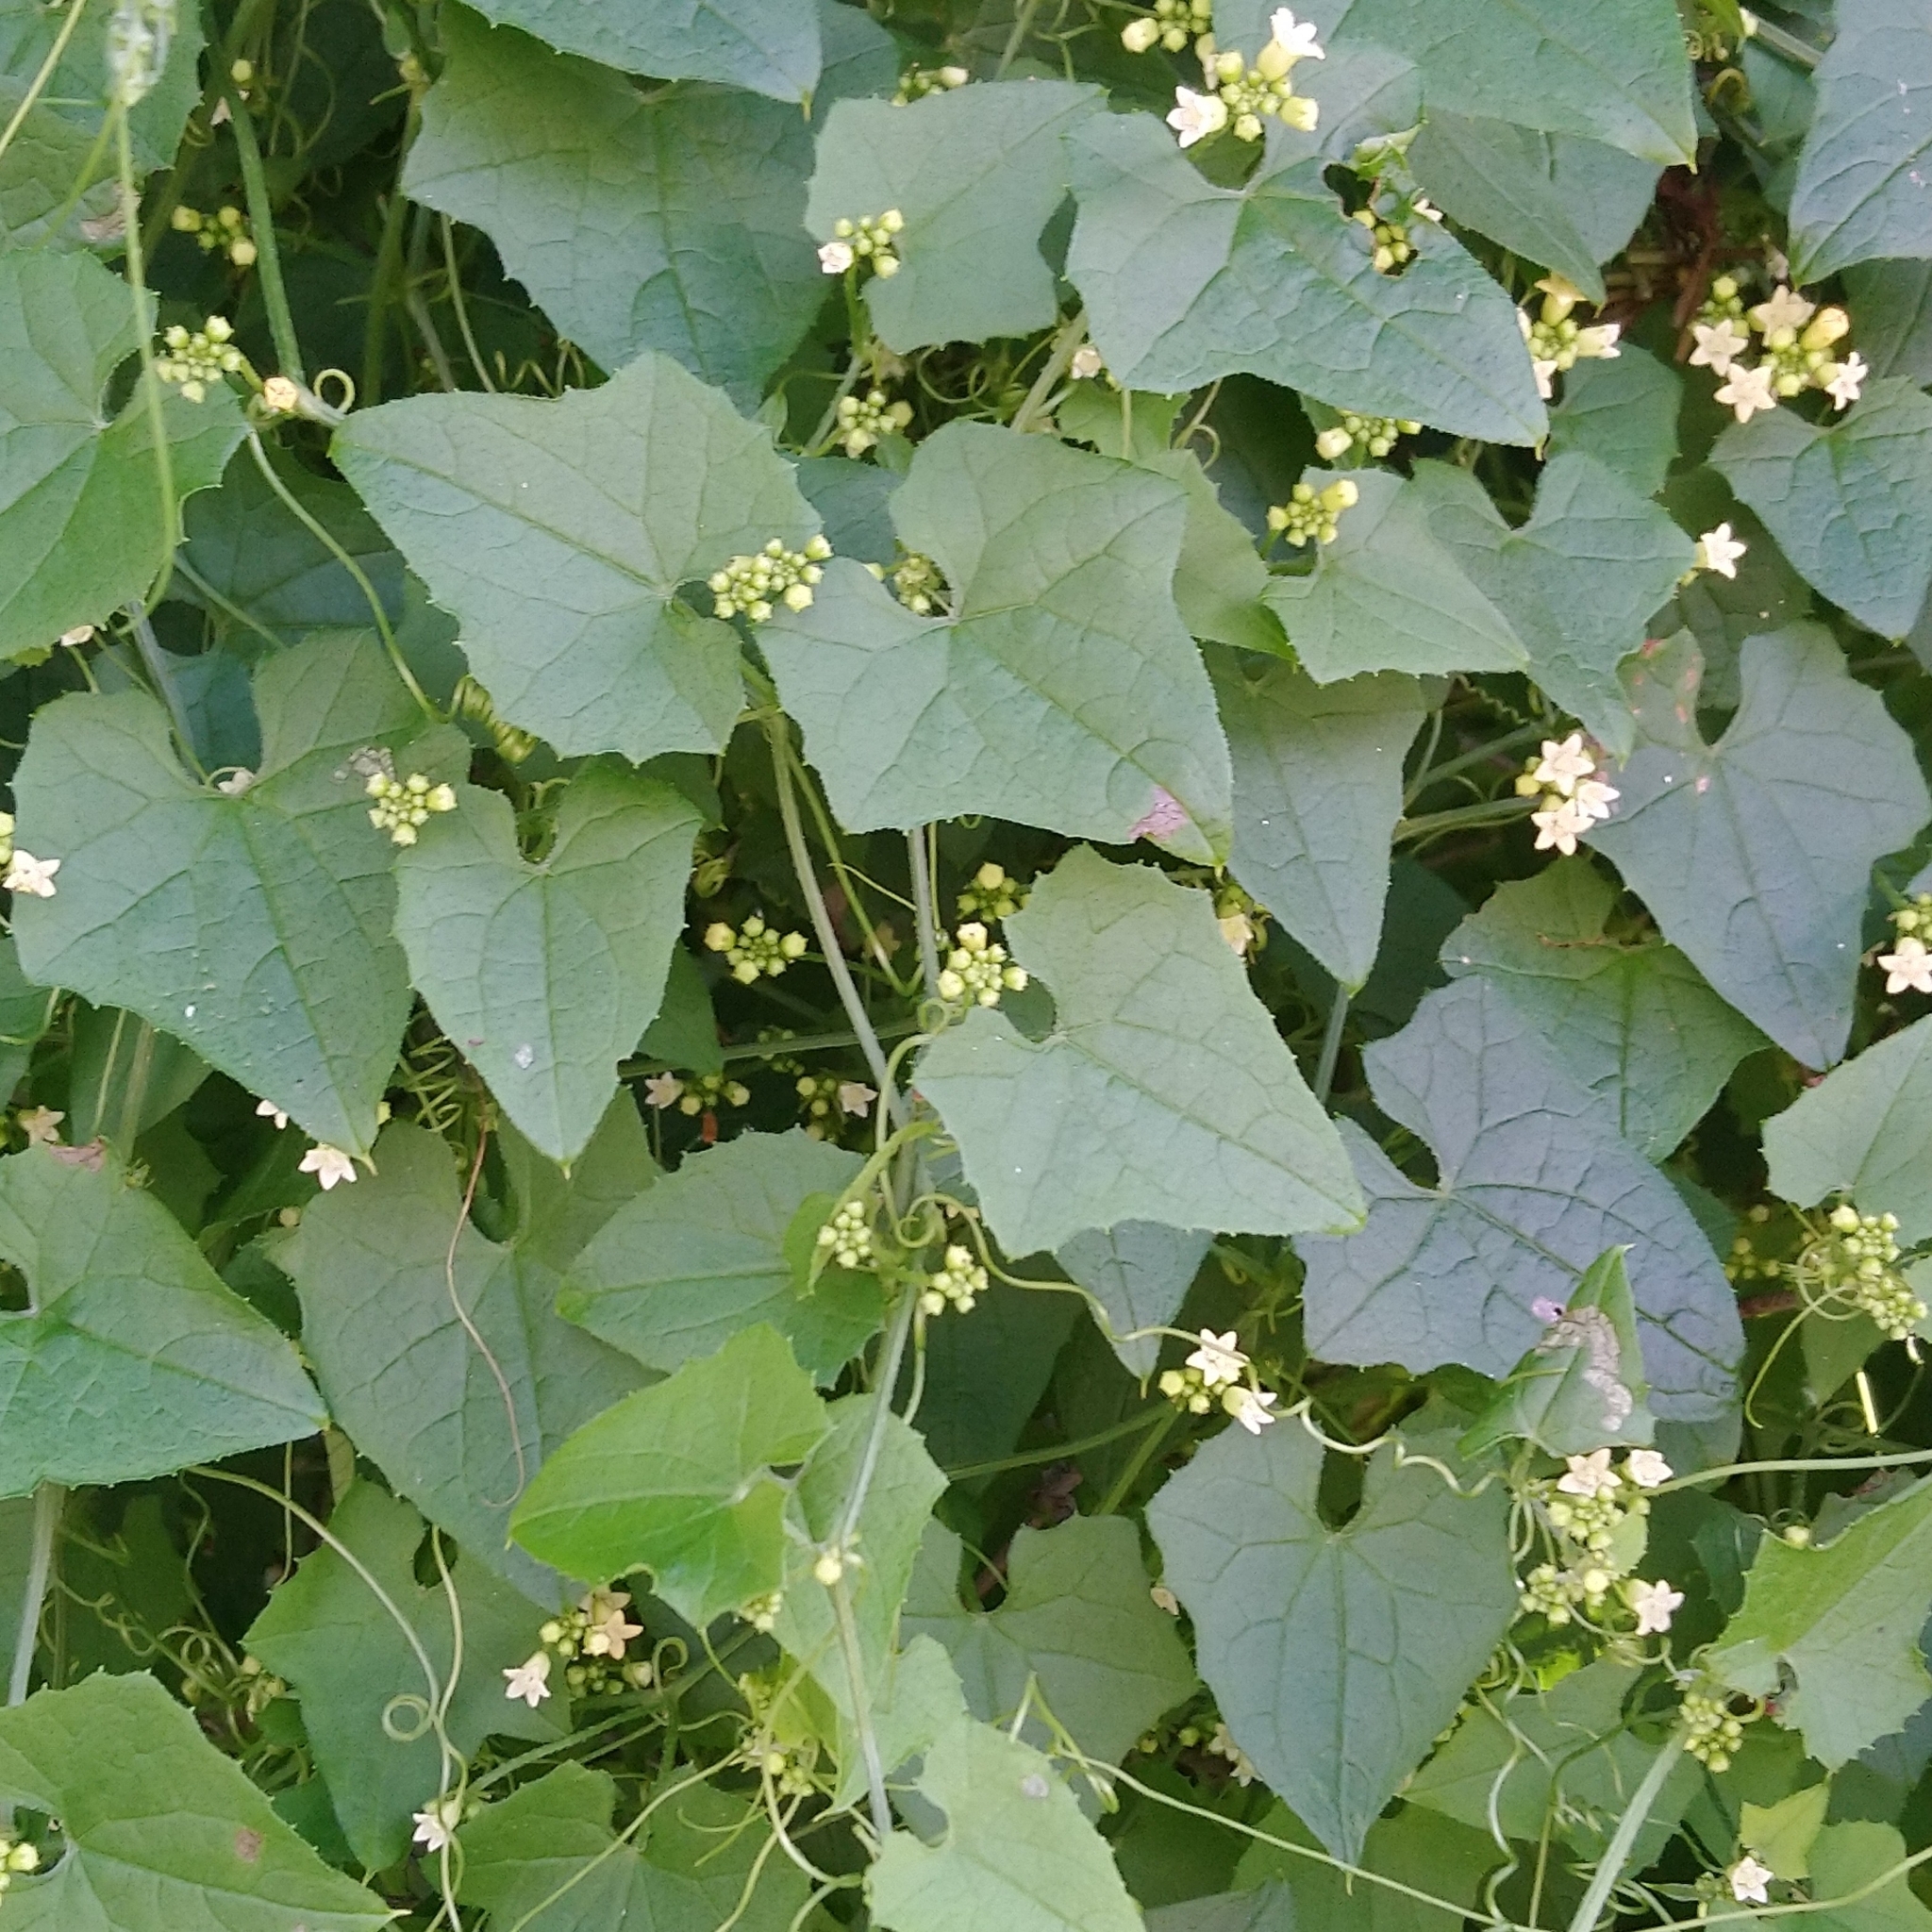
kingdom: Plantae
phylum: Tracheophyta
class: Magnoliopsida
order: Cucurbitales
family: Cucurbitaceae
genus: Zehneria
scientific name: Zehneria scabra
